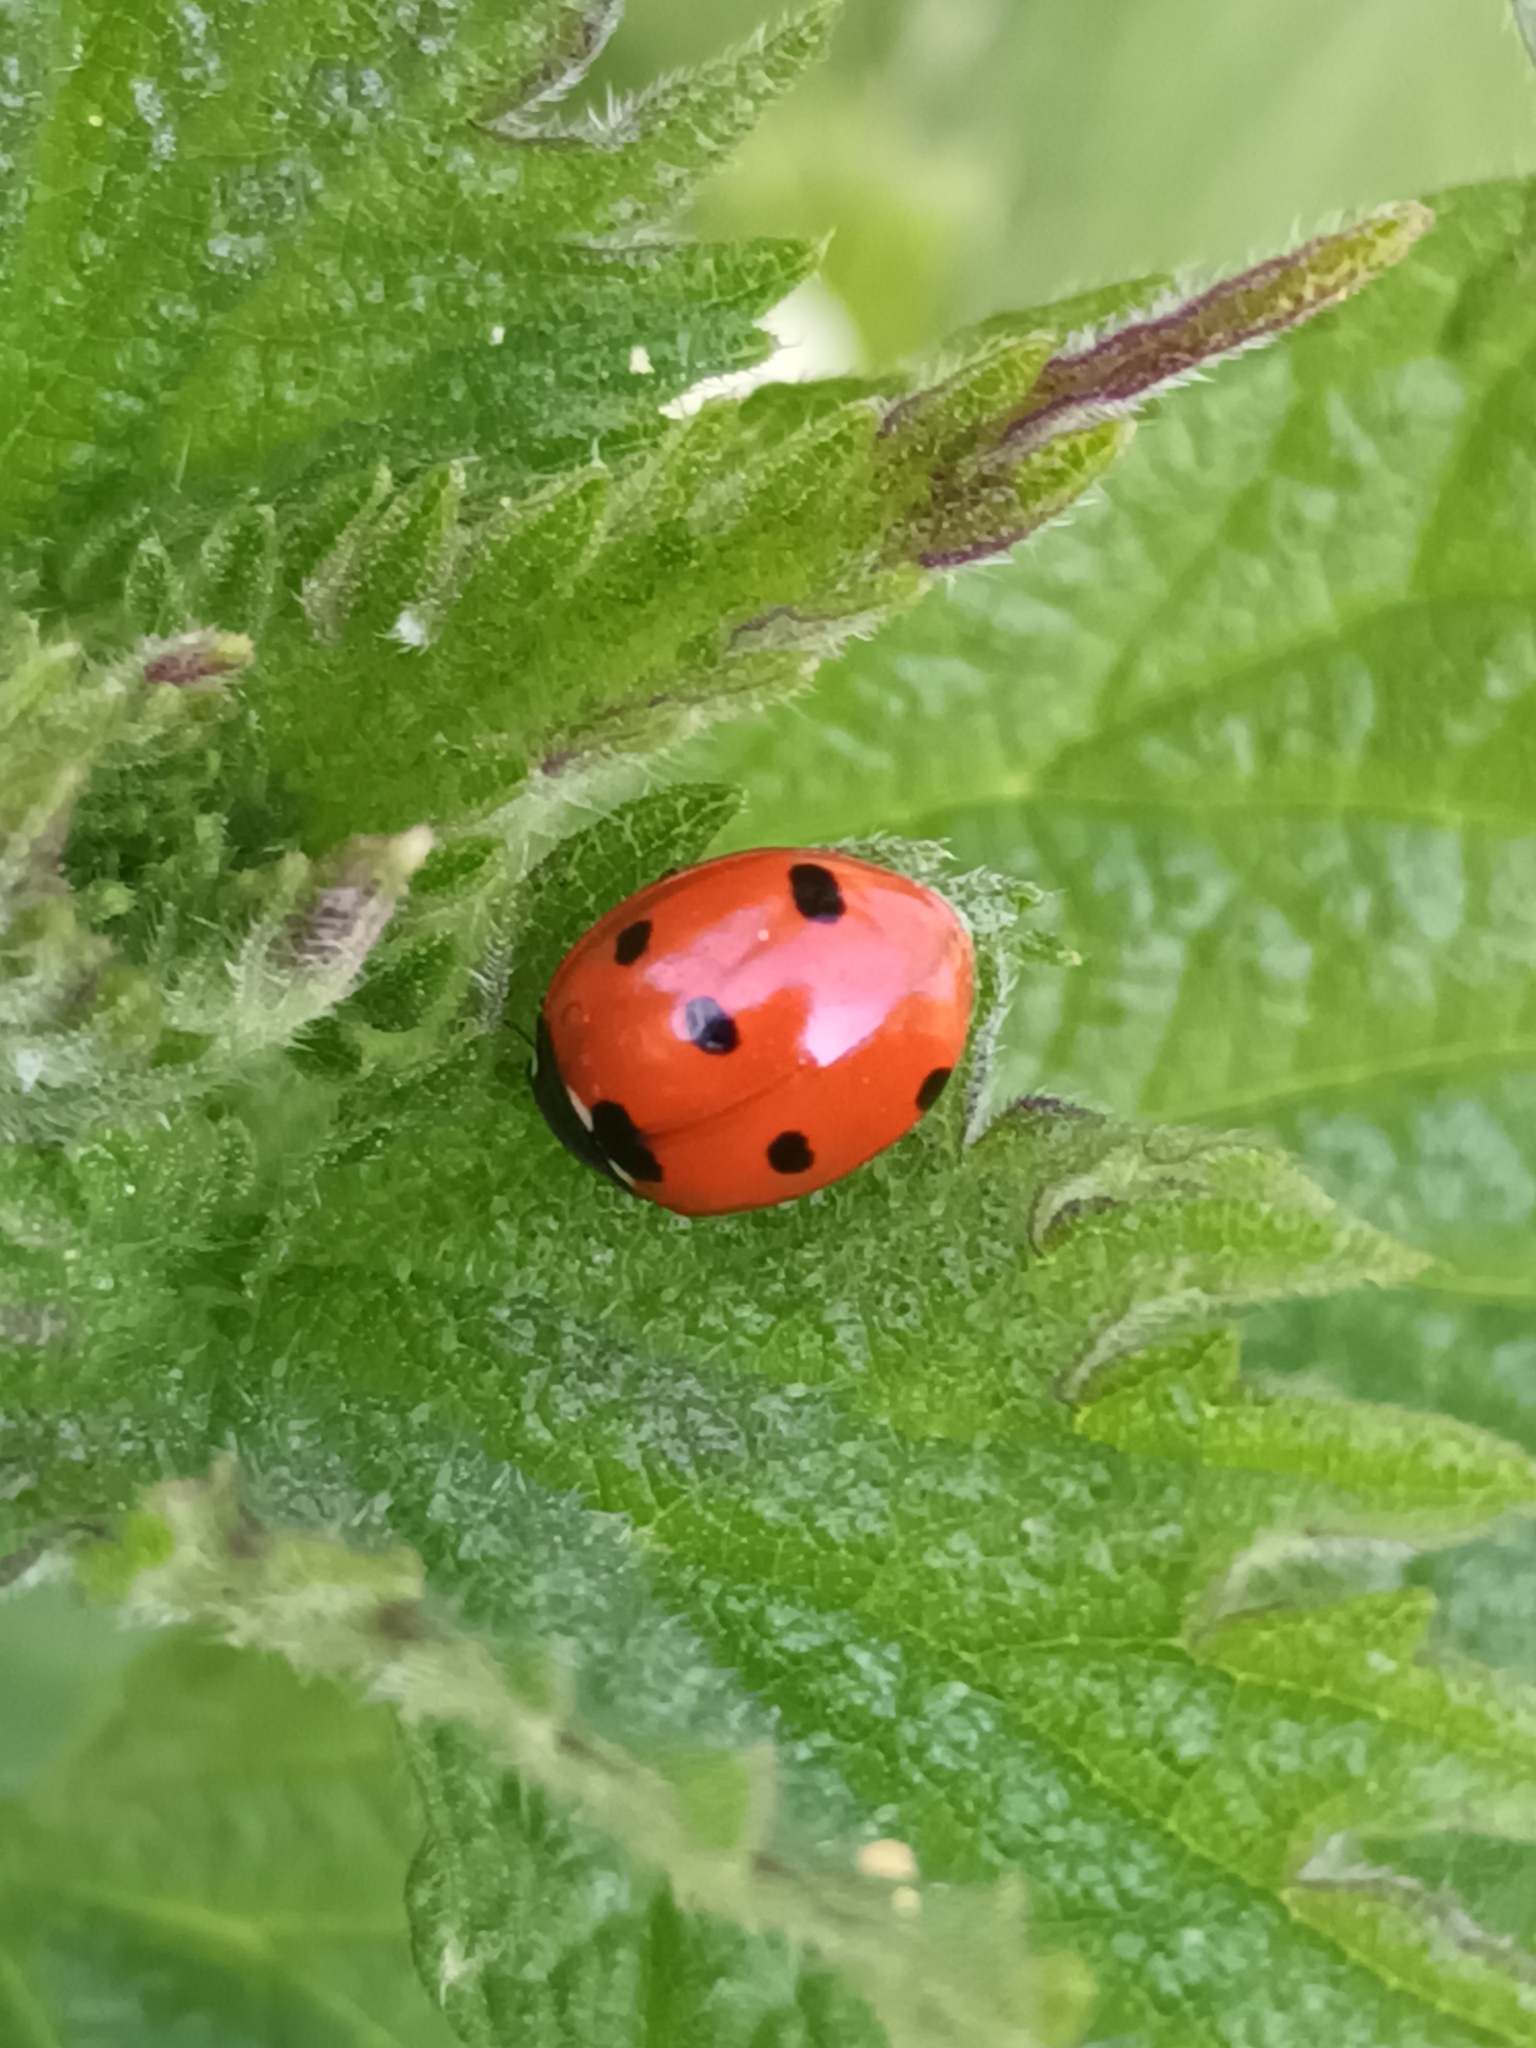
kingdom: Animalia
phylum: Arthropoda
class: Insecta
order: Coleoptera
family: Coccinellidae
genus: Coccinella
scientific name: Coccinella septempunctata
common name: Sevenspotted lady beetle
